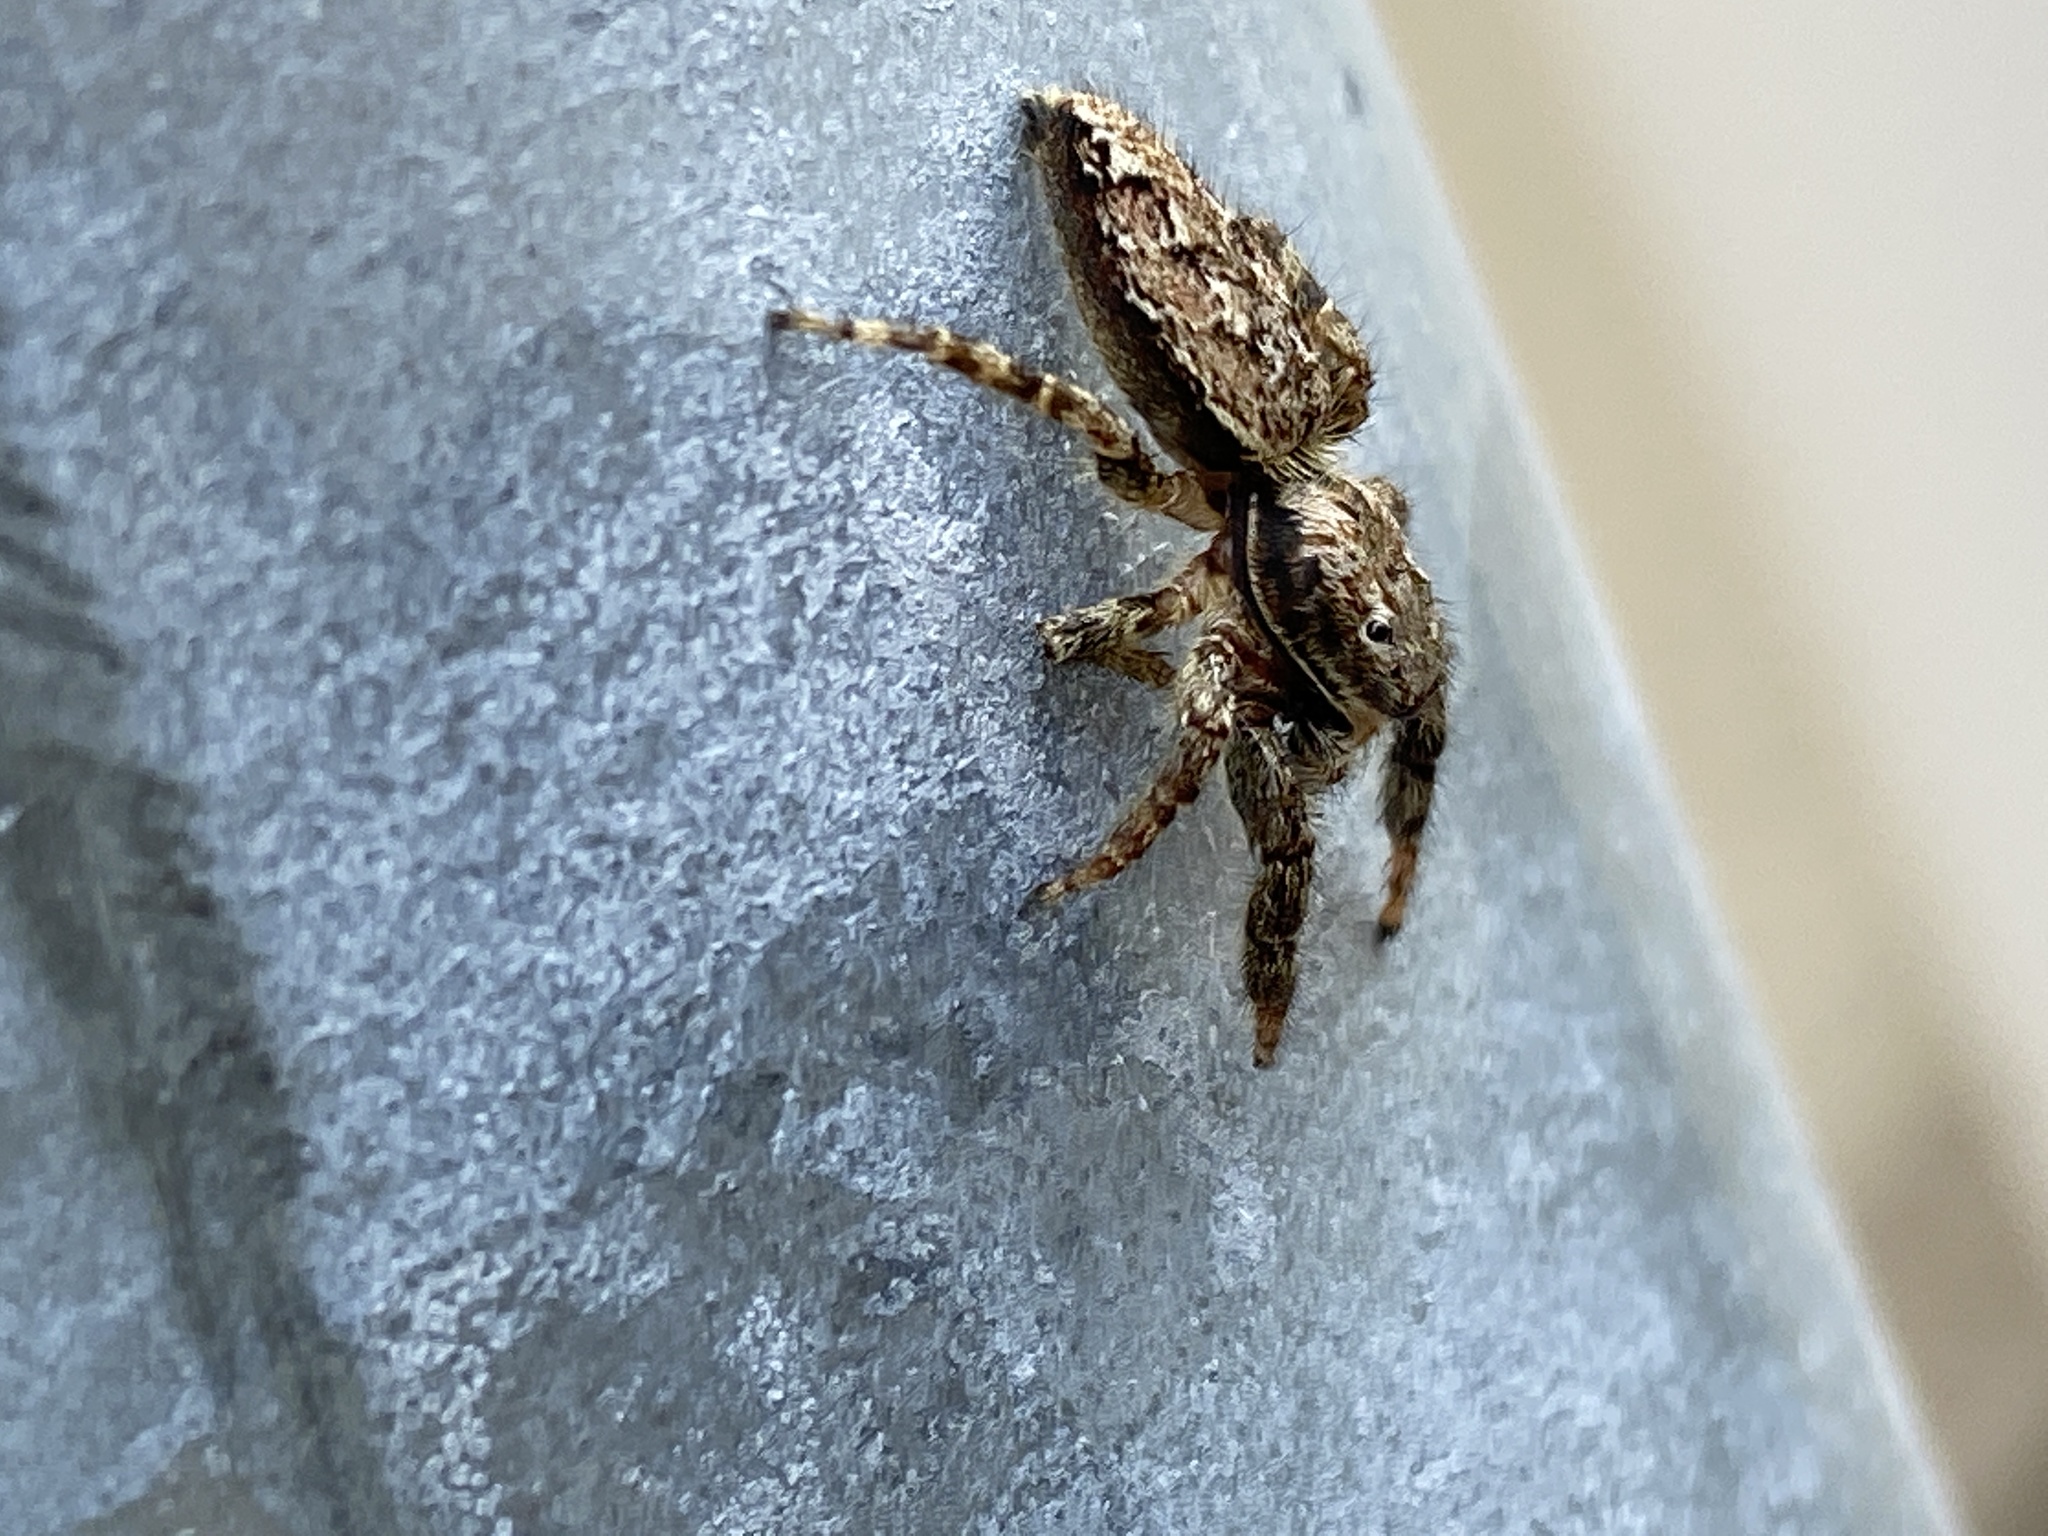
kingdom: Animalia
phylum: Arthropoda
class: Arachnida
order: Araneae
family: Salticidae
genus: Marpissa
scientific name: Marpissa muscosa
